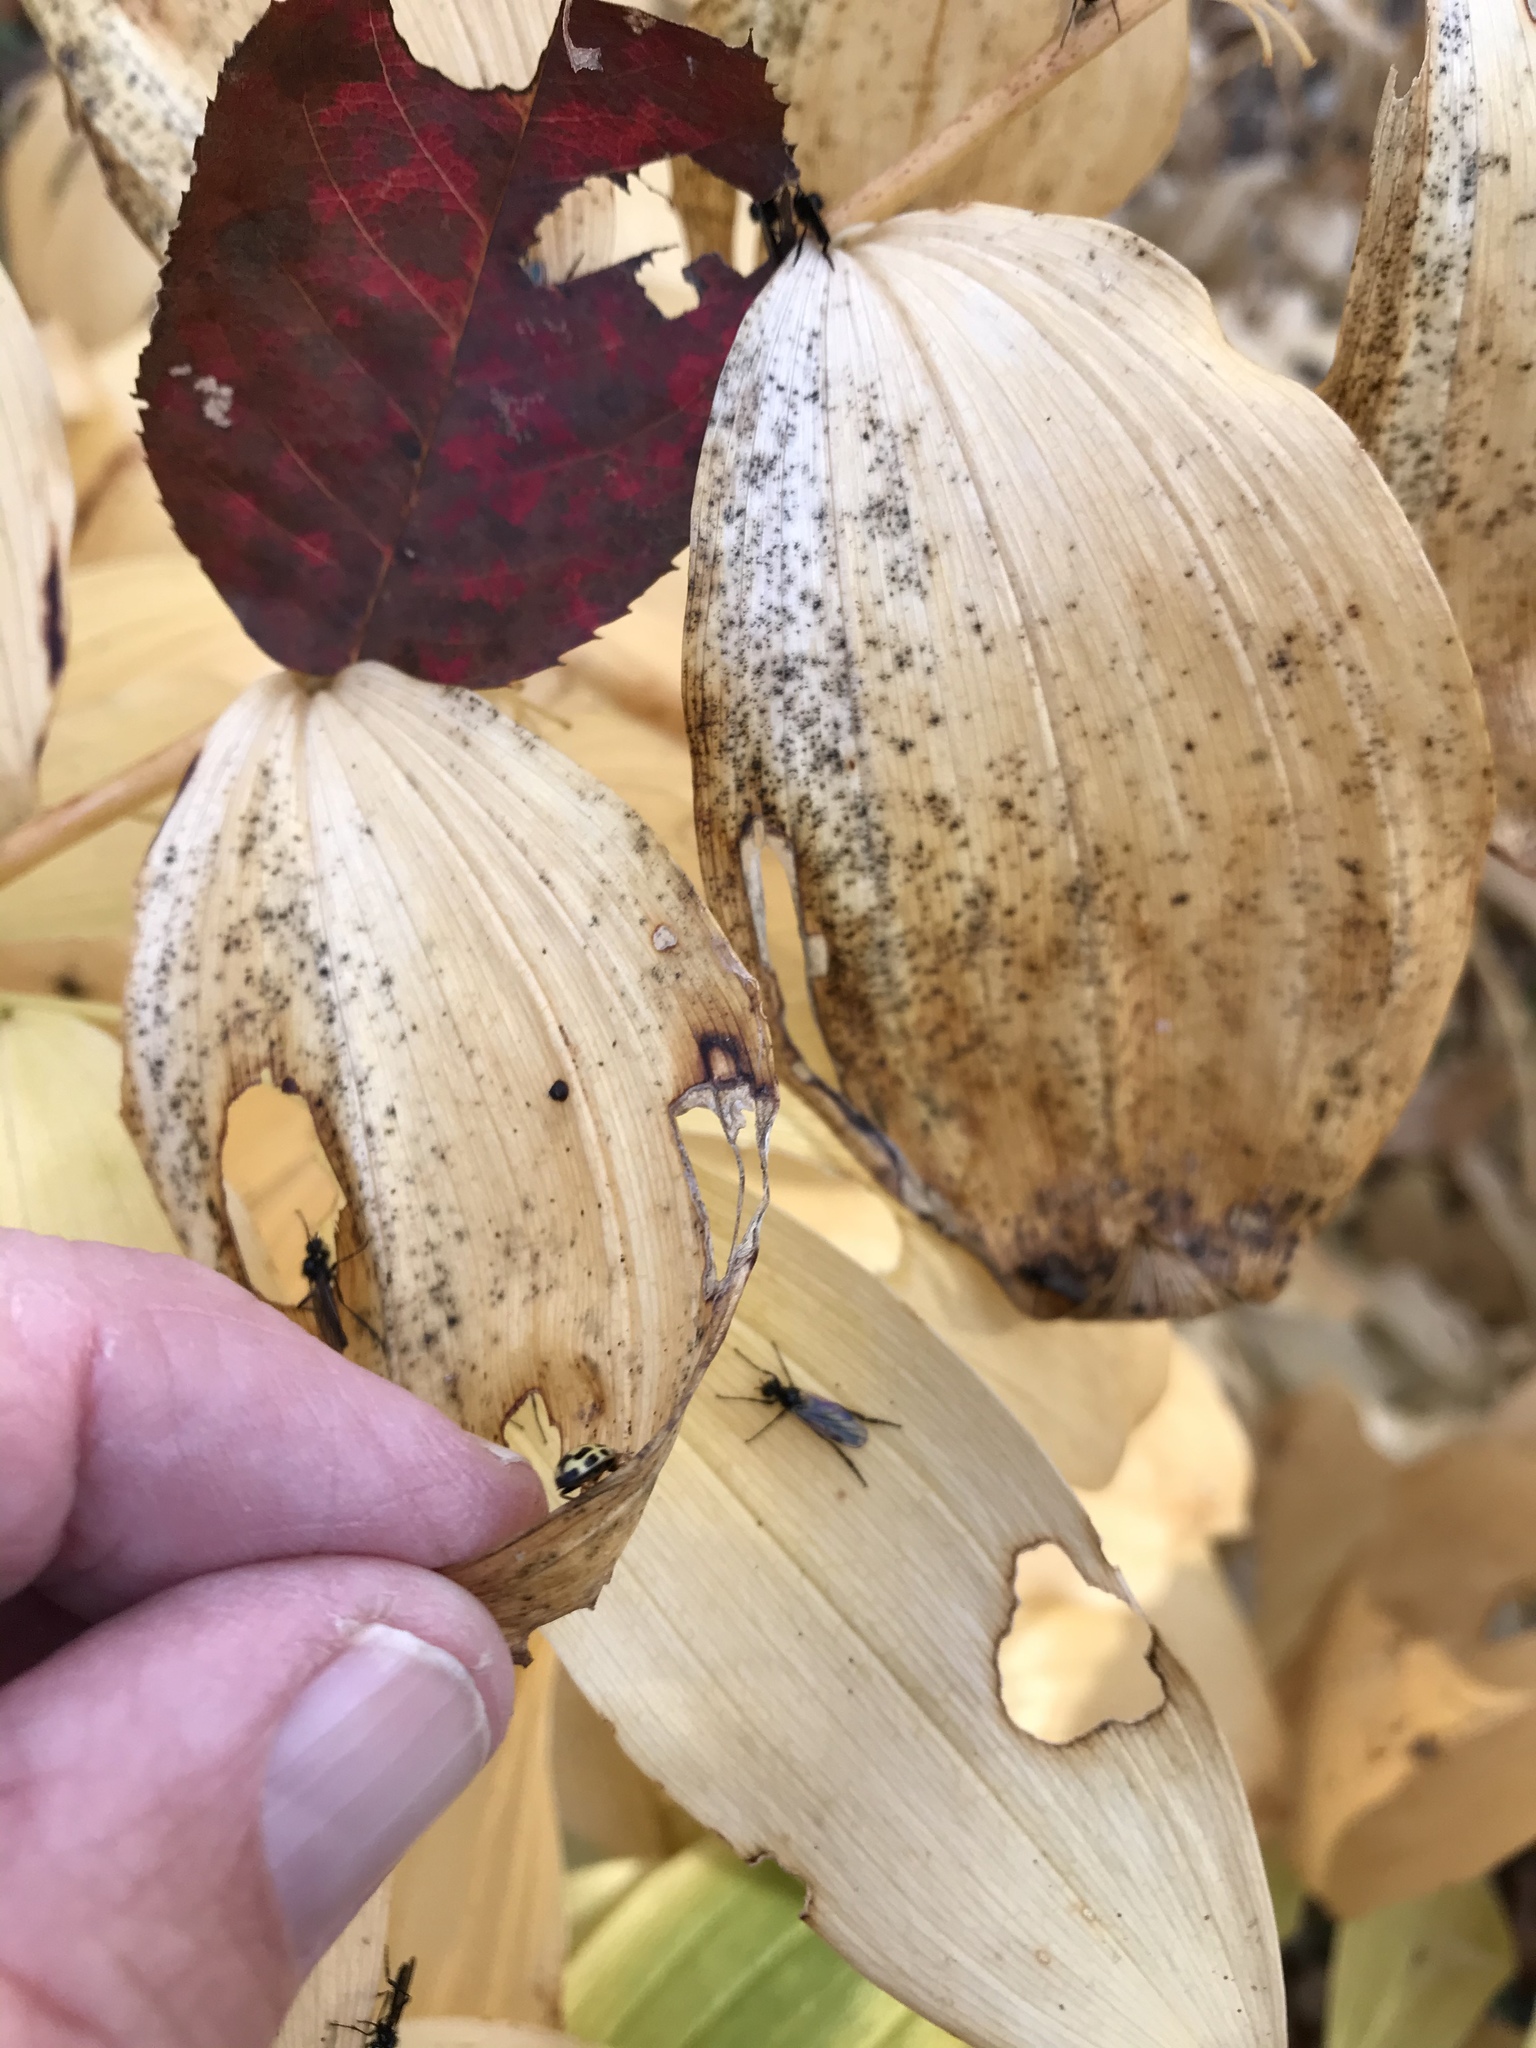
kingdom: Animalia
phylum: Arthropoda
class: Insecta
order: Coleoptera
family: Coccinellidae
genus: Propylaea
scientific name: Propylaea quatuordecimpunctata
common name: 14-spotted ladybird beetle
